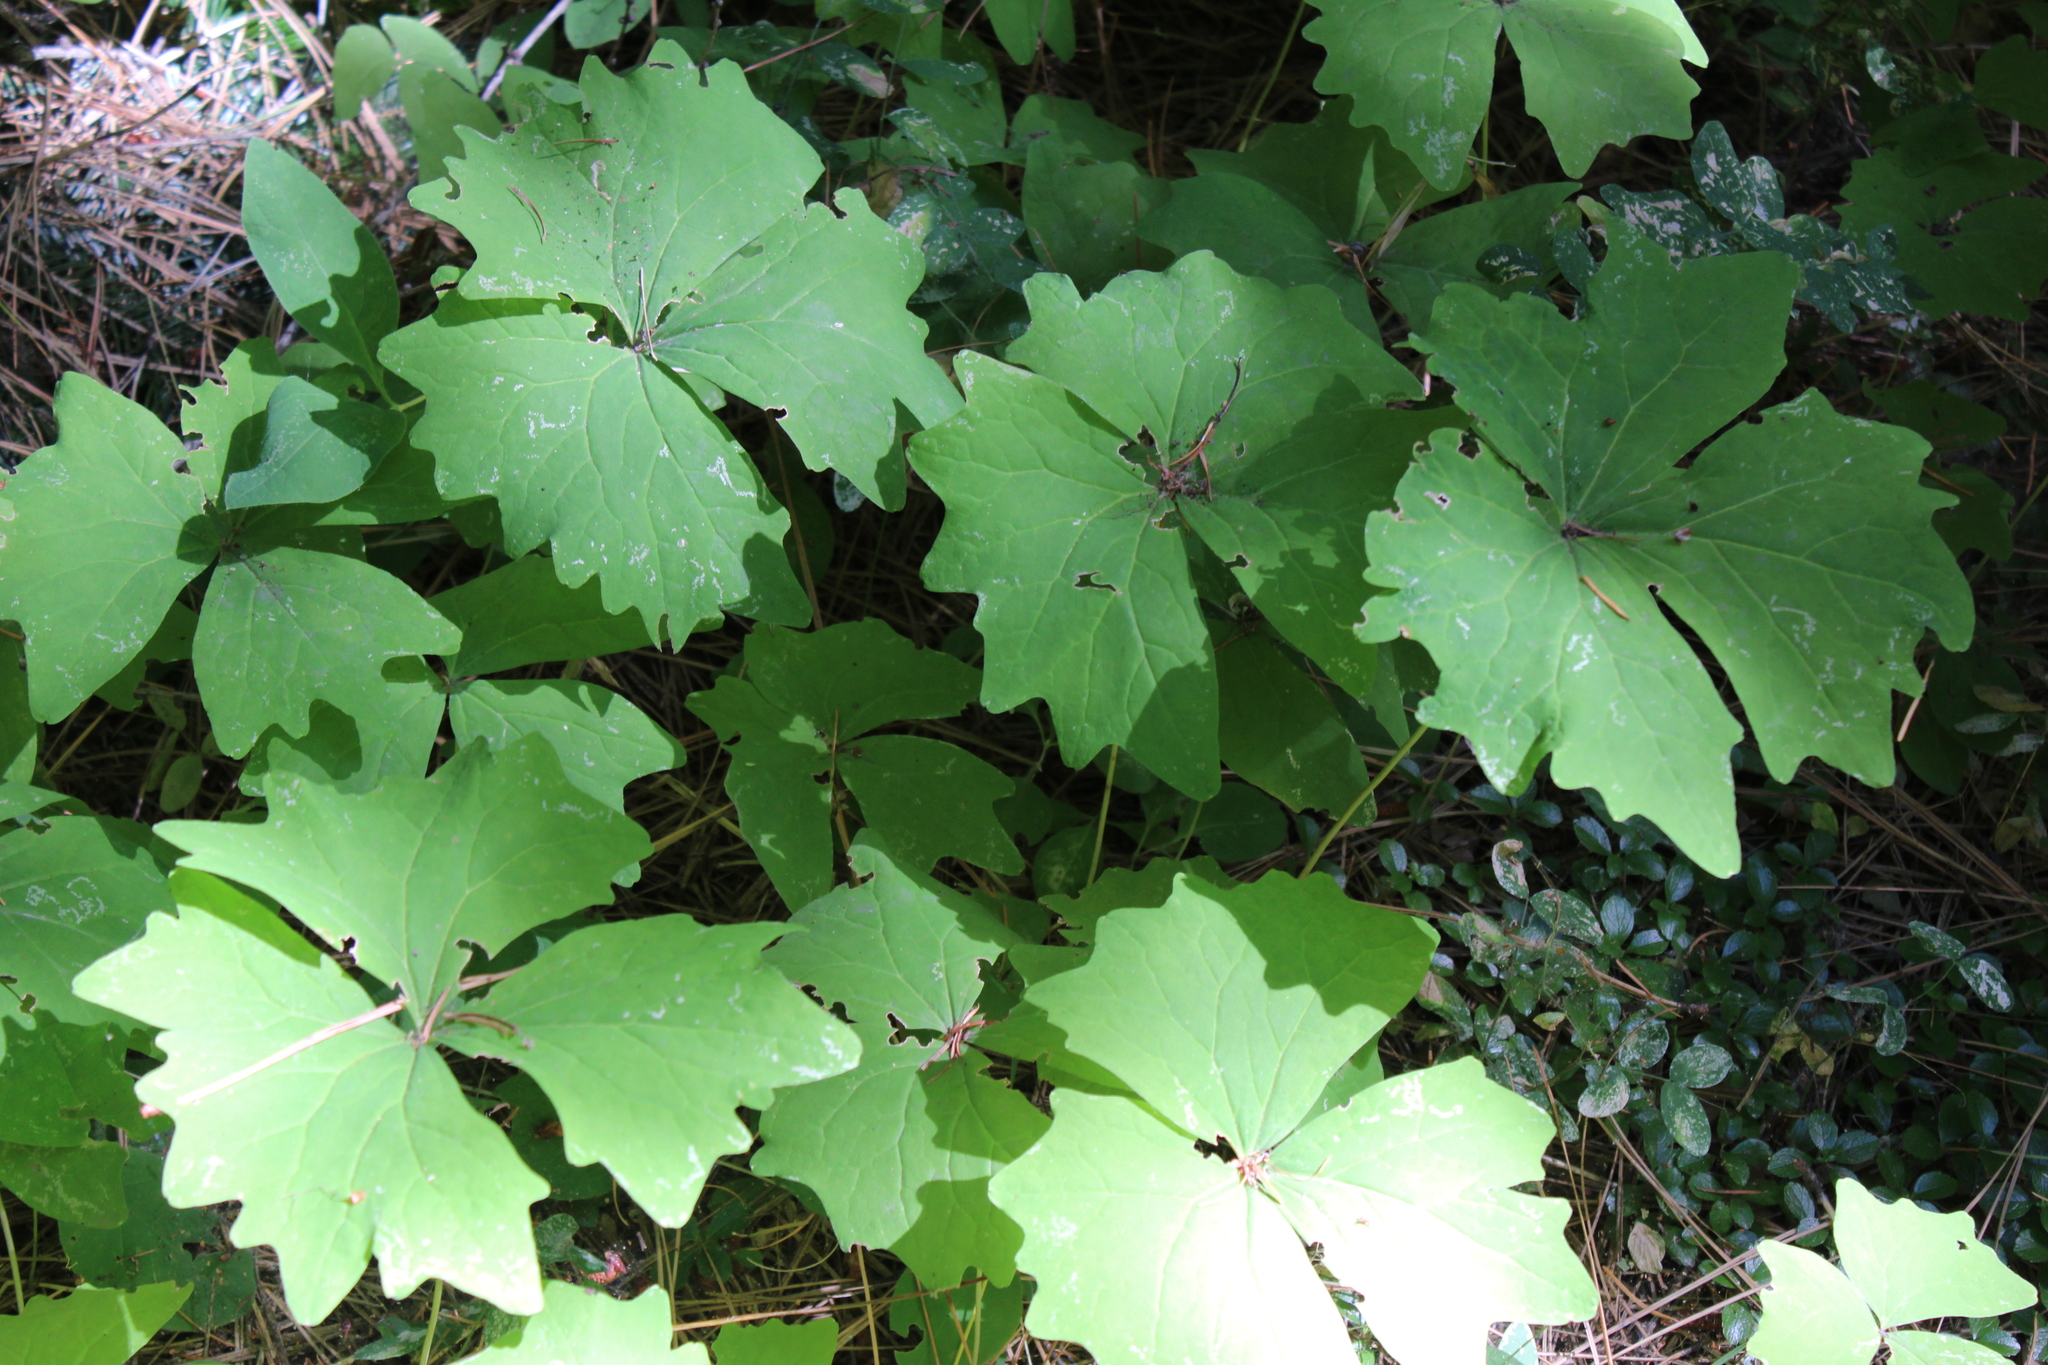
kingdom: Plantae
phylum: Tracheophyta
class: Magnoliopsida
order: Ranunculales
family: Berberidaceae
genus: Achlys
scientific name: Achlys triphylla
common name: Vanilla-leaf
